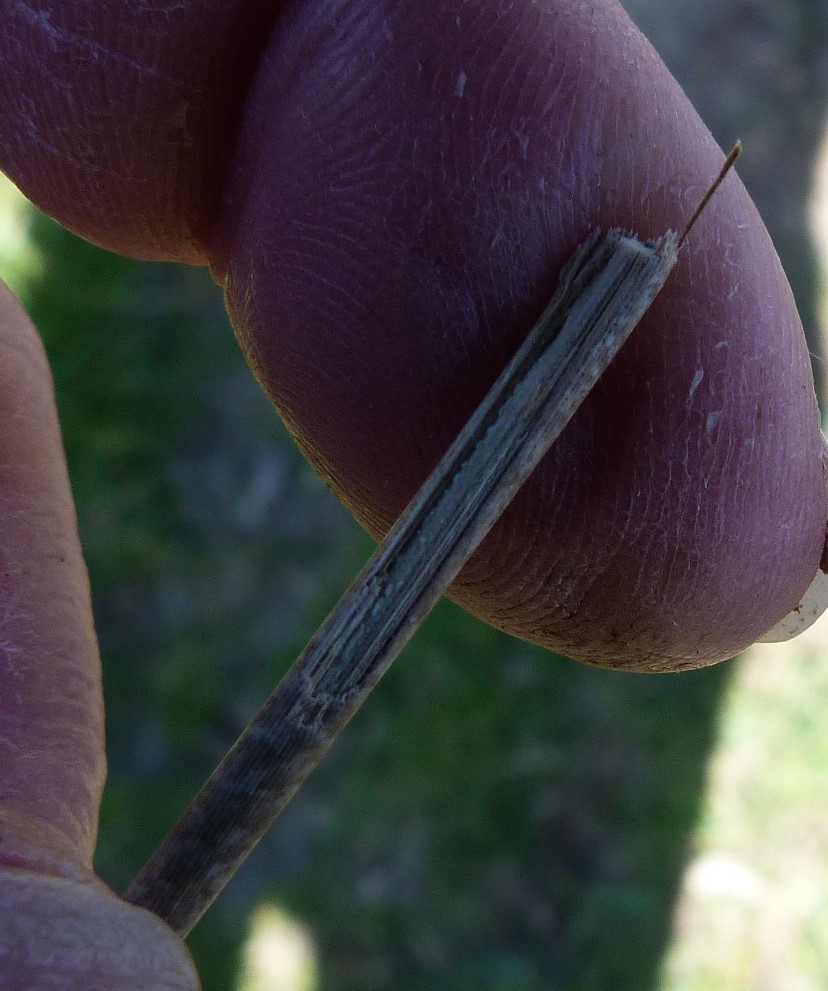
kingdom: Plantae
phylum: Tracheophyta
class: Liliopsida
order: Poales
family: Juncaceae
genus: Juncus
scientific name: Juncus effusus
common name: Soft rush
